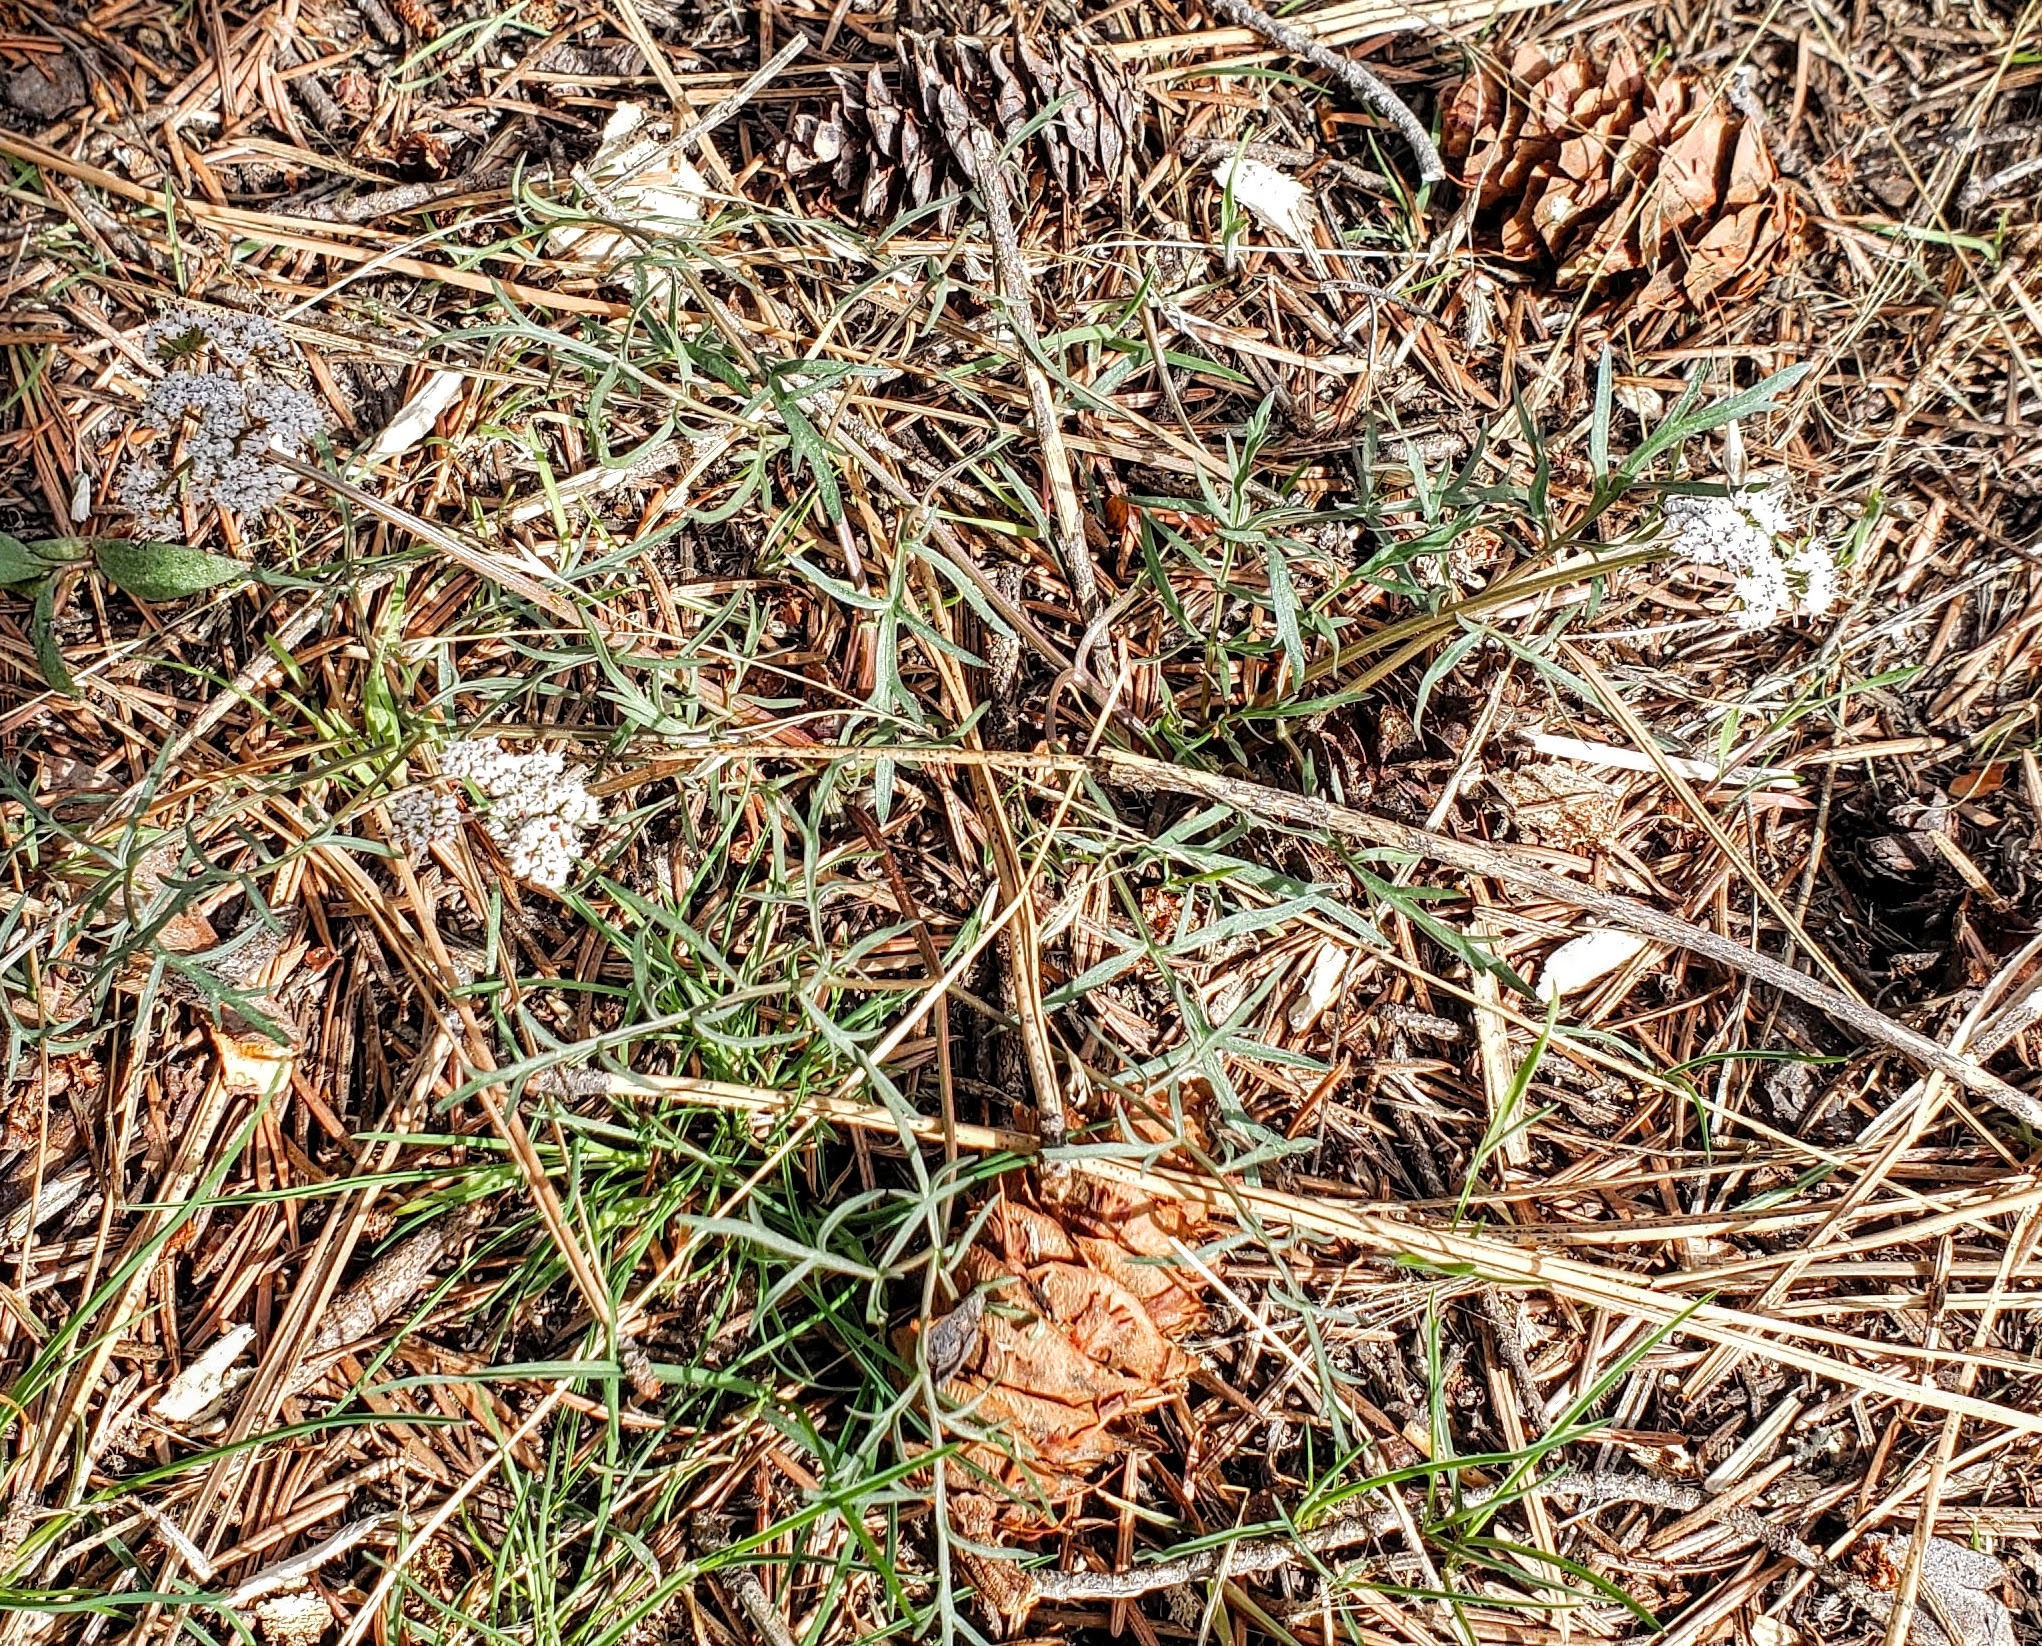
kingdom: Plantae
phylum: Tracheophyta
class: Magnoliopsida
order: Apiales
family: Apiaceae
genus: Lomatium
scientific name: Lomatium geyeri
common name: Geyer's biscuitroot
